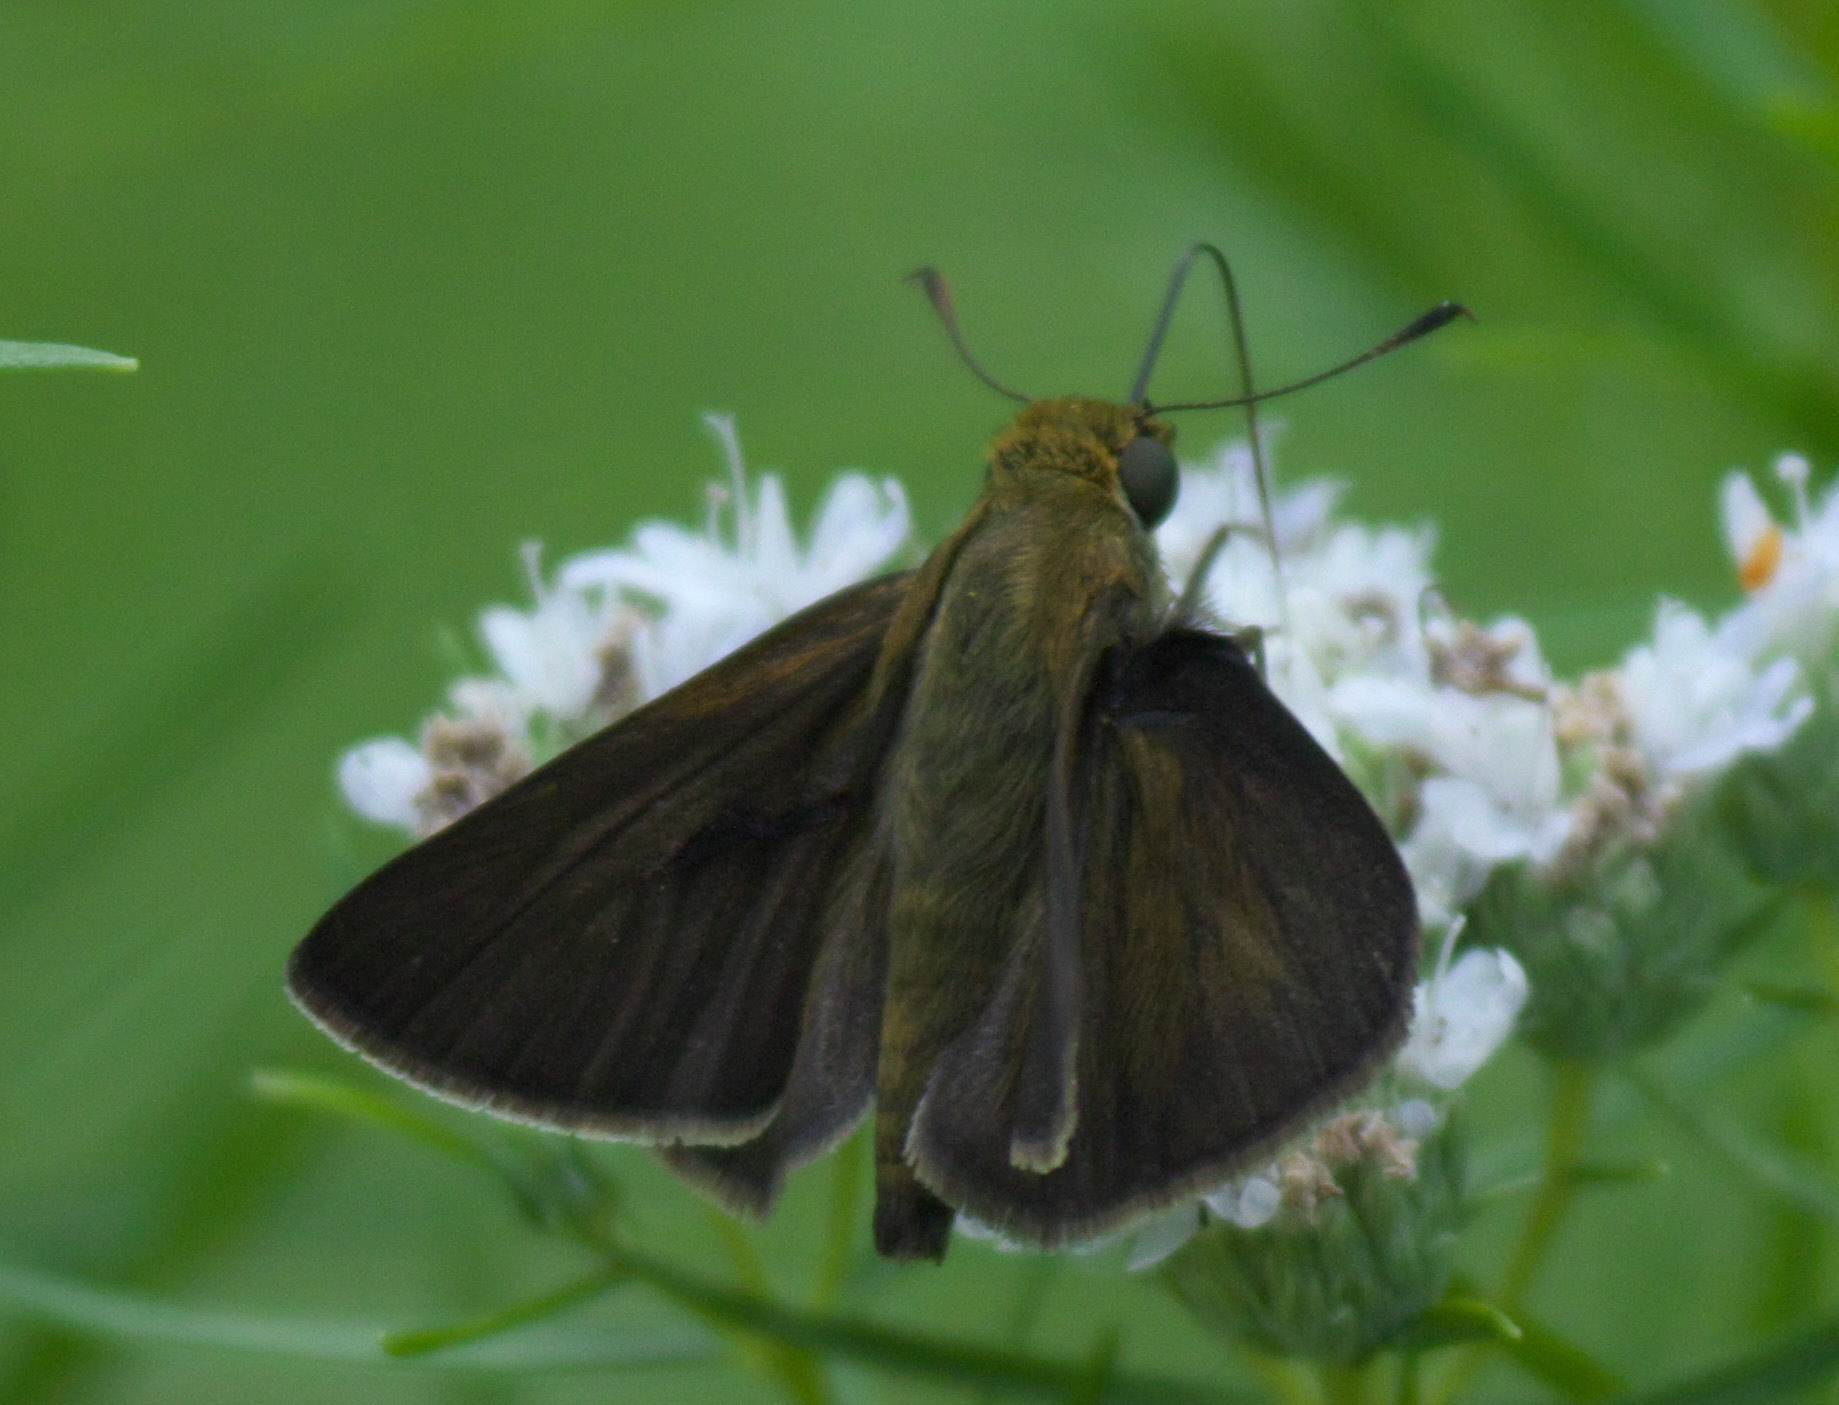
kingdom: Animalia
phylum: Arthropoda
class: Insecta
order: Lepidoptera
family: Hesperiidae
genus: Euphyes
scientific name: Euphyes vestris
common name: Dun skipper
